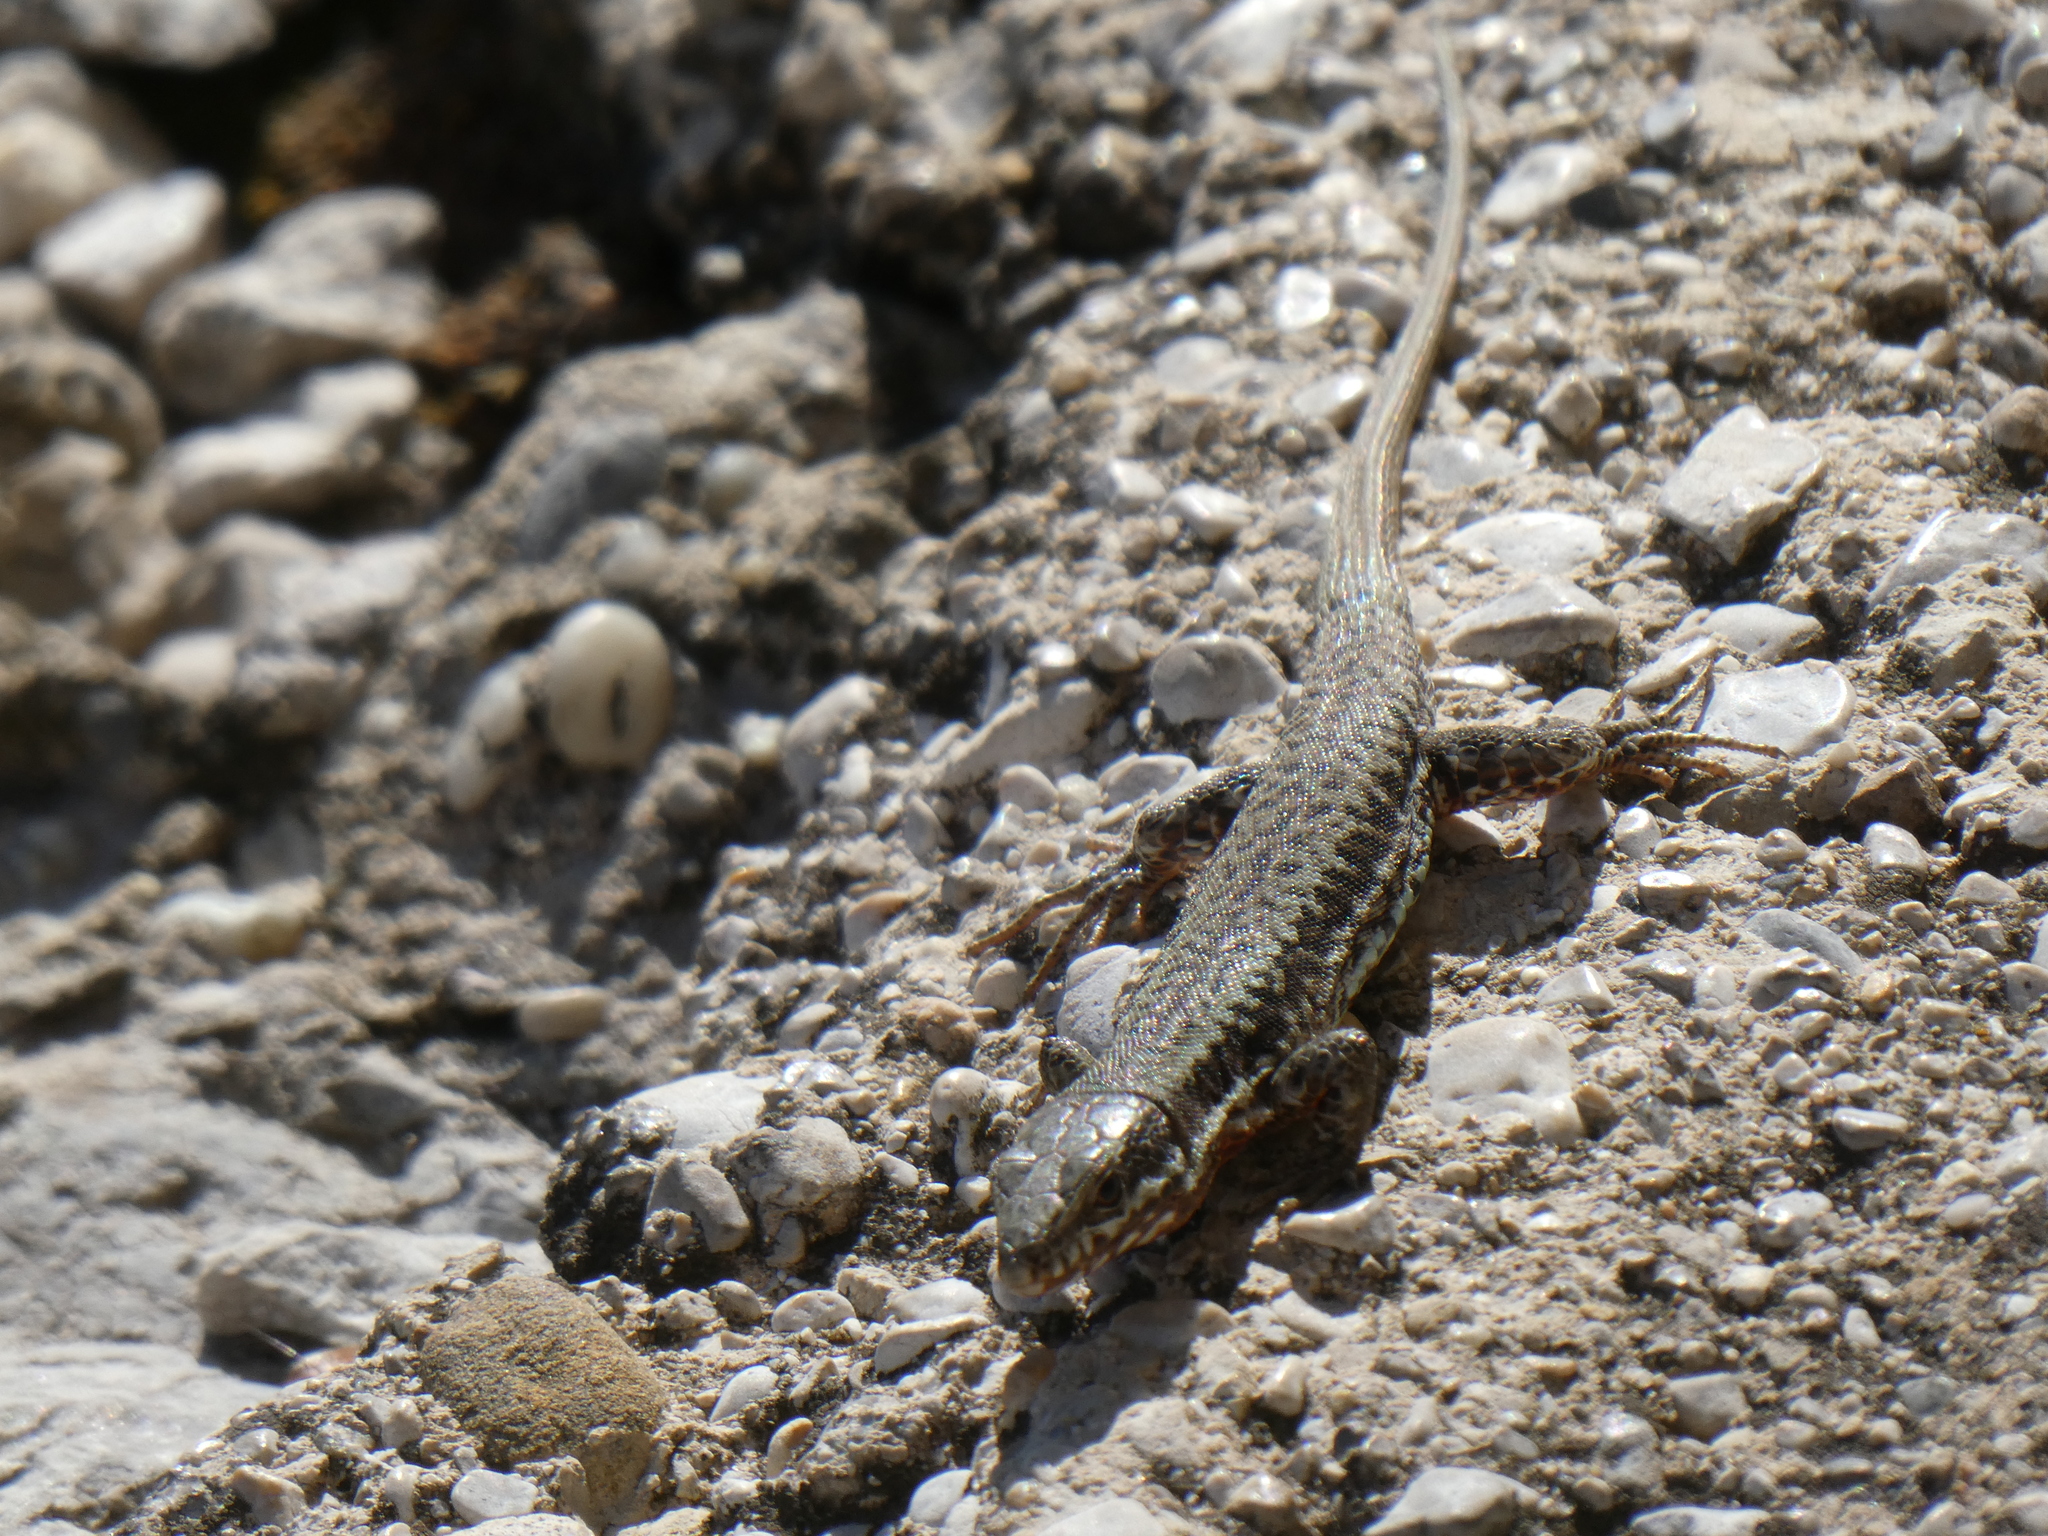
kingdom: Animalia
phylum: Chordata
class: Squamata
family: Lacertidae
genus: Podarcis
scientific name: Podarcis muralis
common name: Common wall lizard
